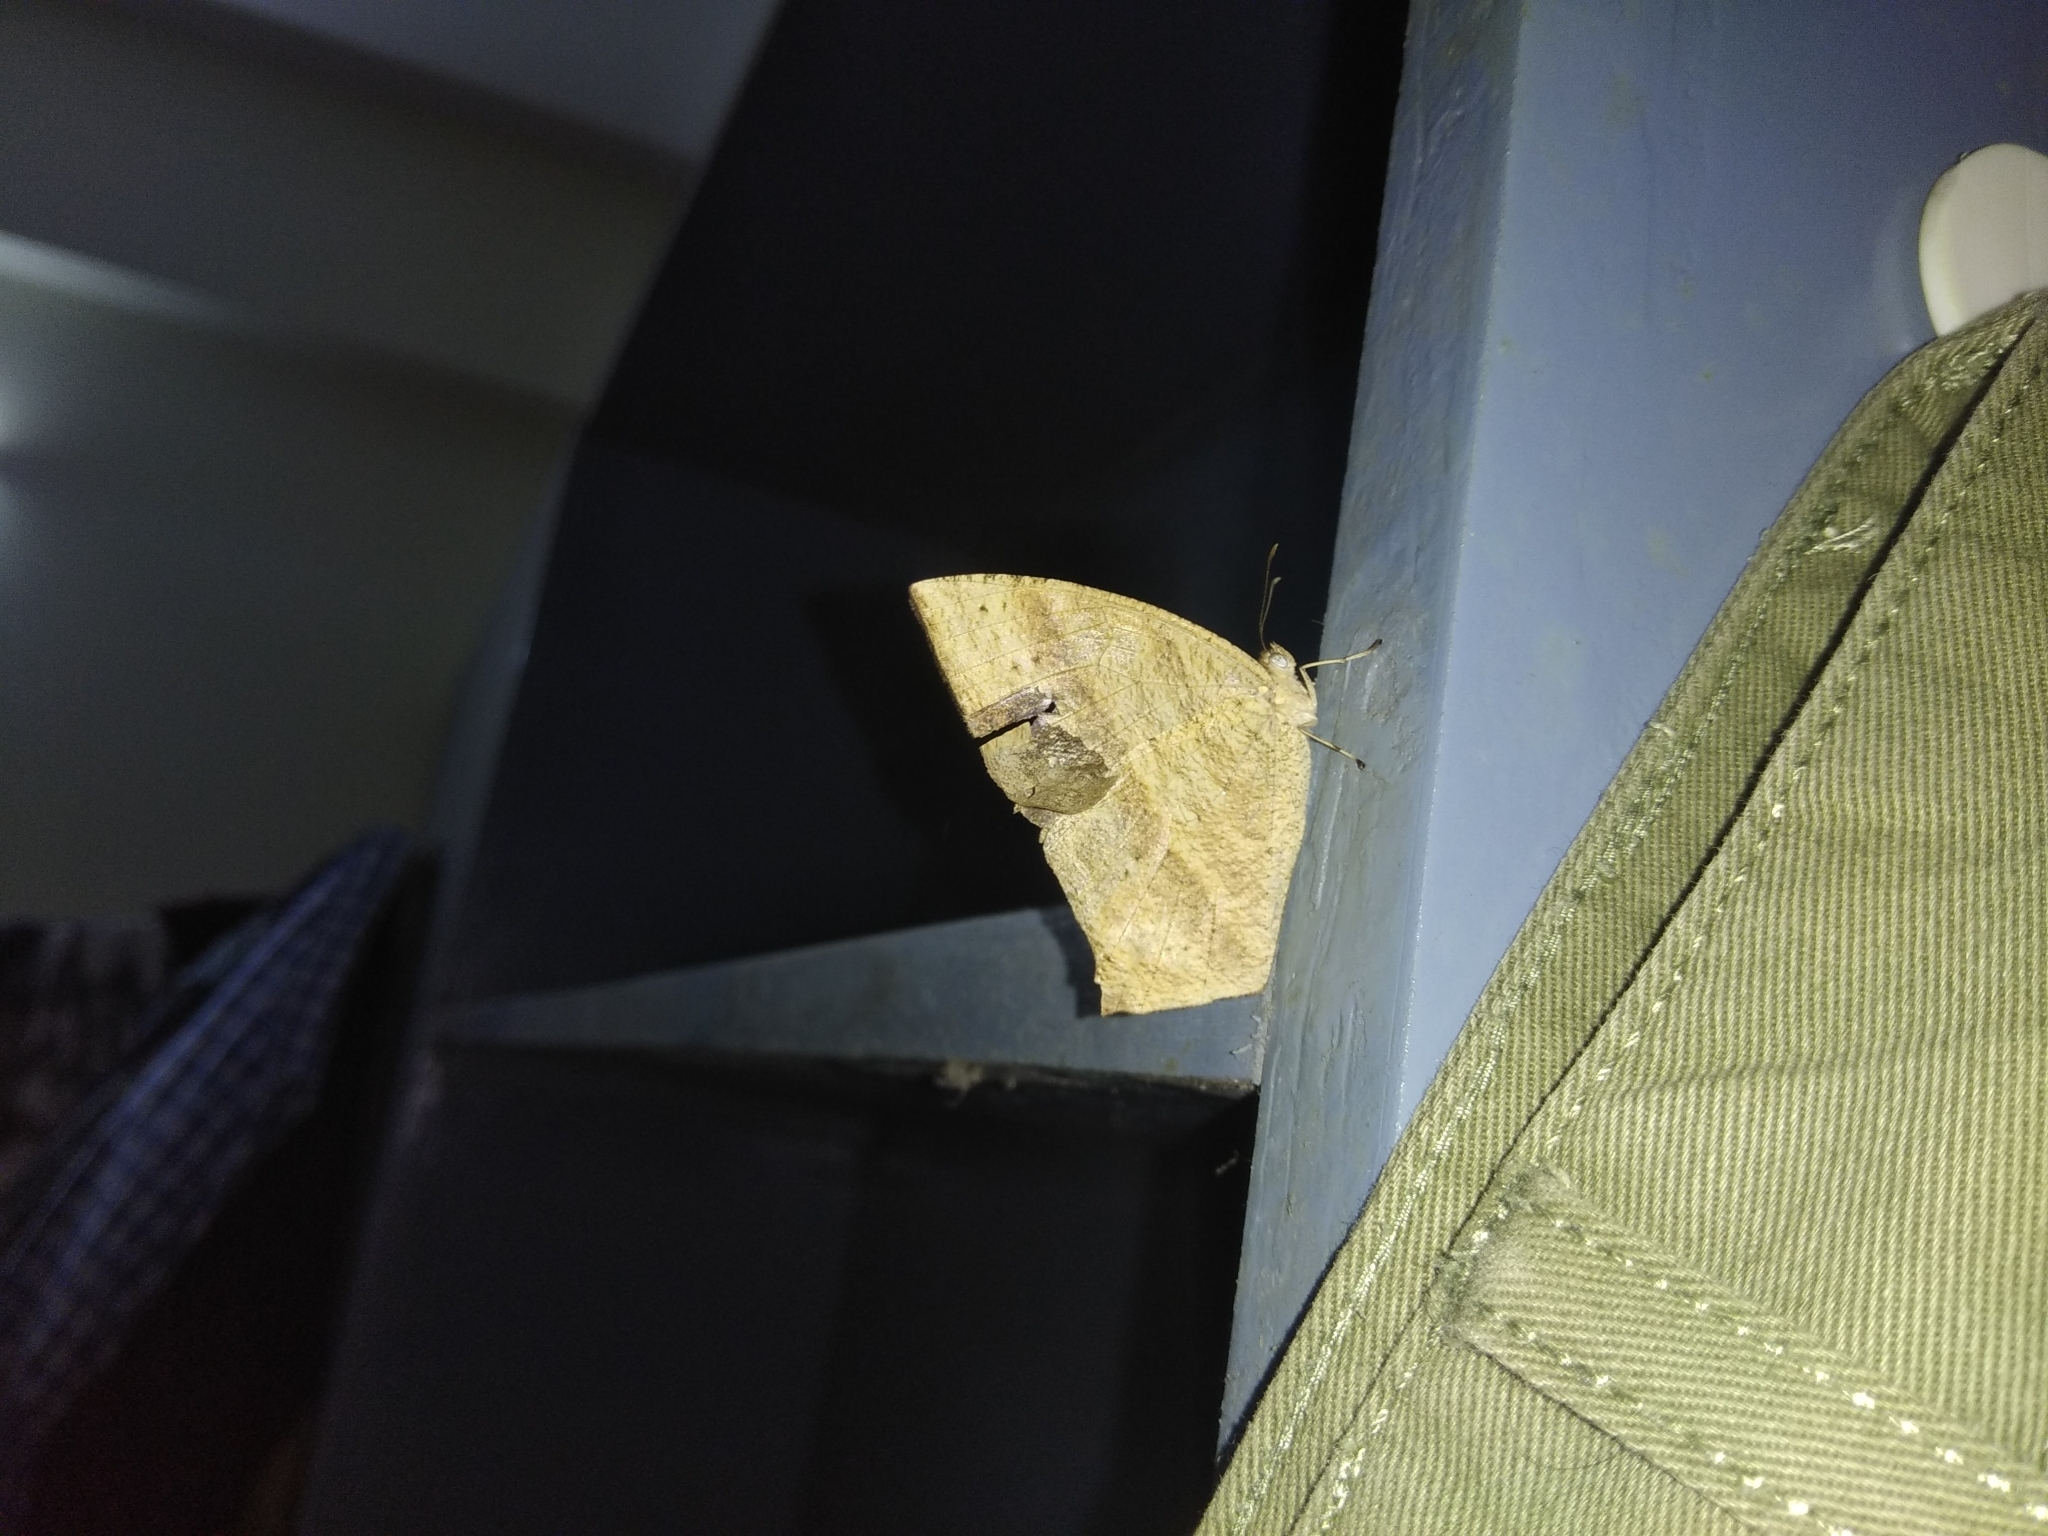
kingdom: Animalia
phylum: Arthropoda
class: Insecta
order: Lepidoptera
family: Nymphalidae
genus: Parantirrhoea
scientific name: Parantirrhoea marshalli
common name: Travancore evening brown
